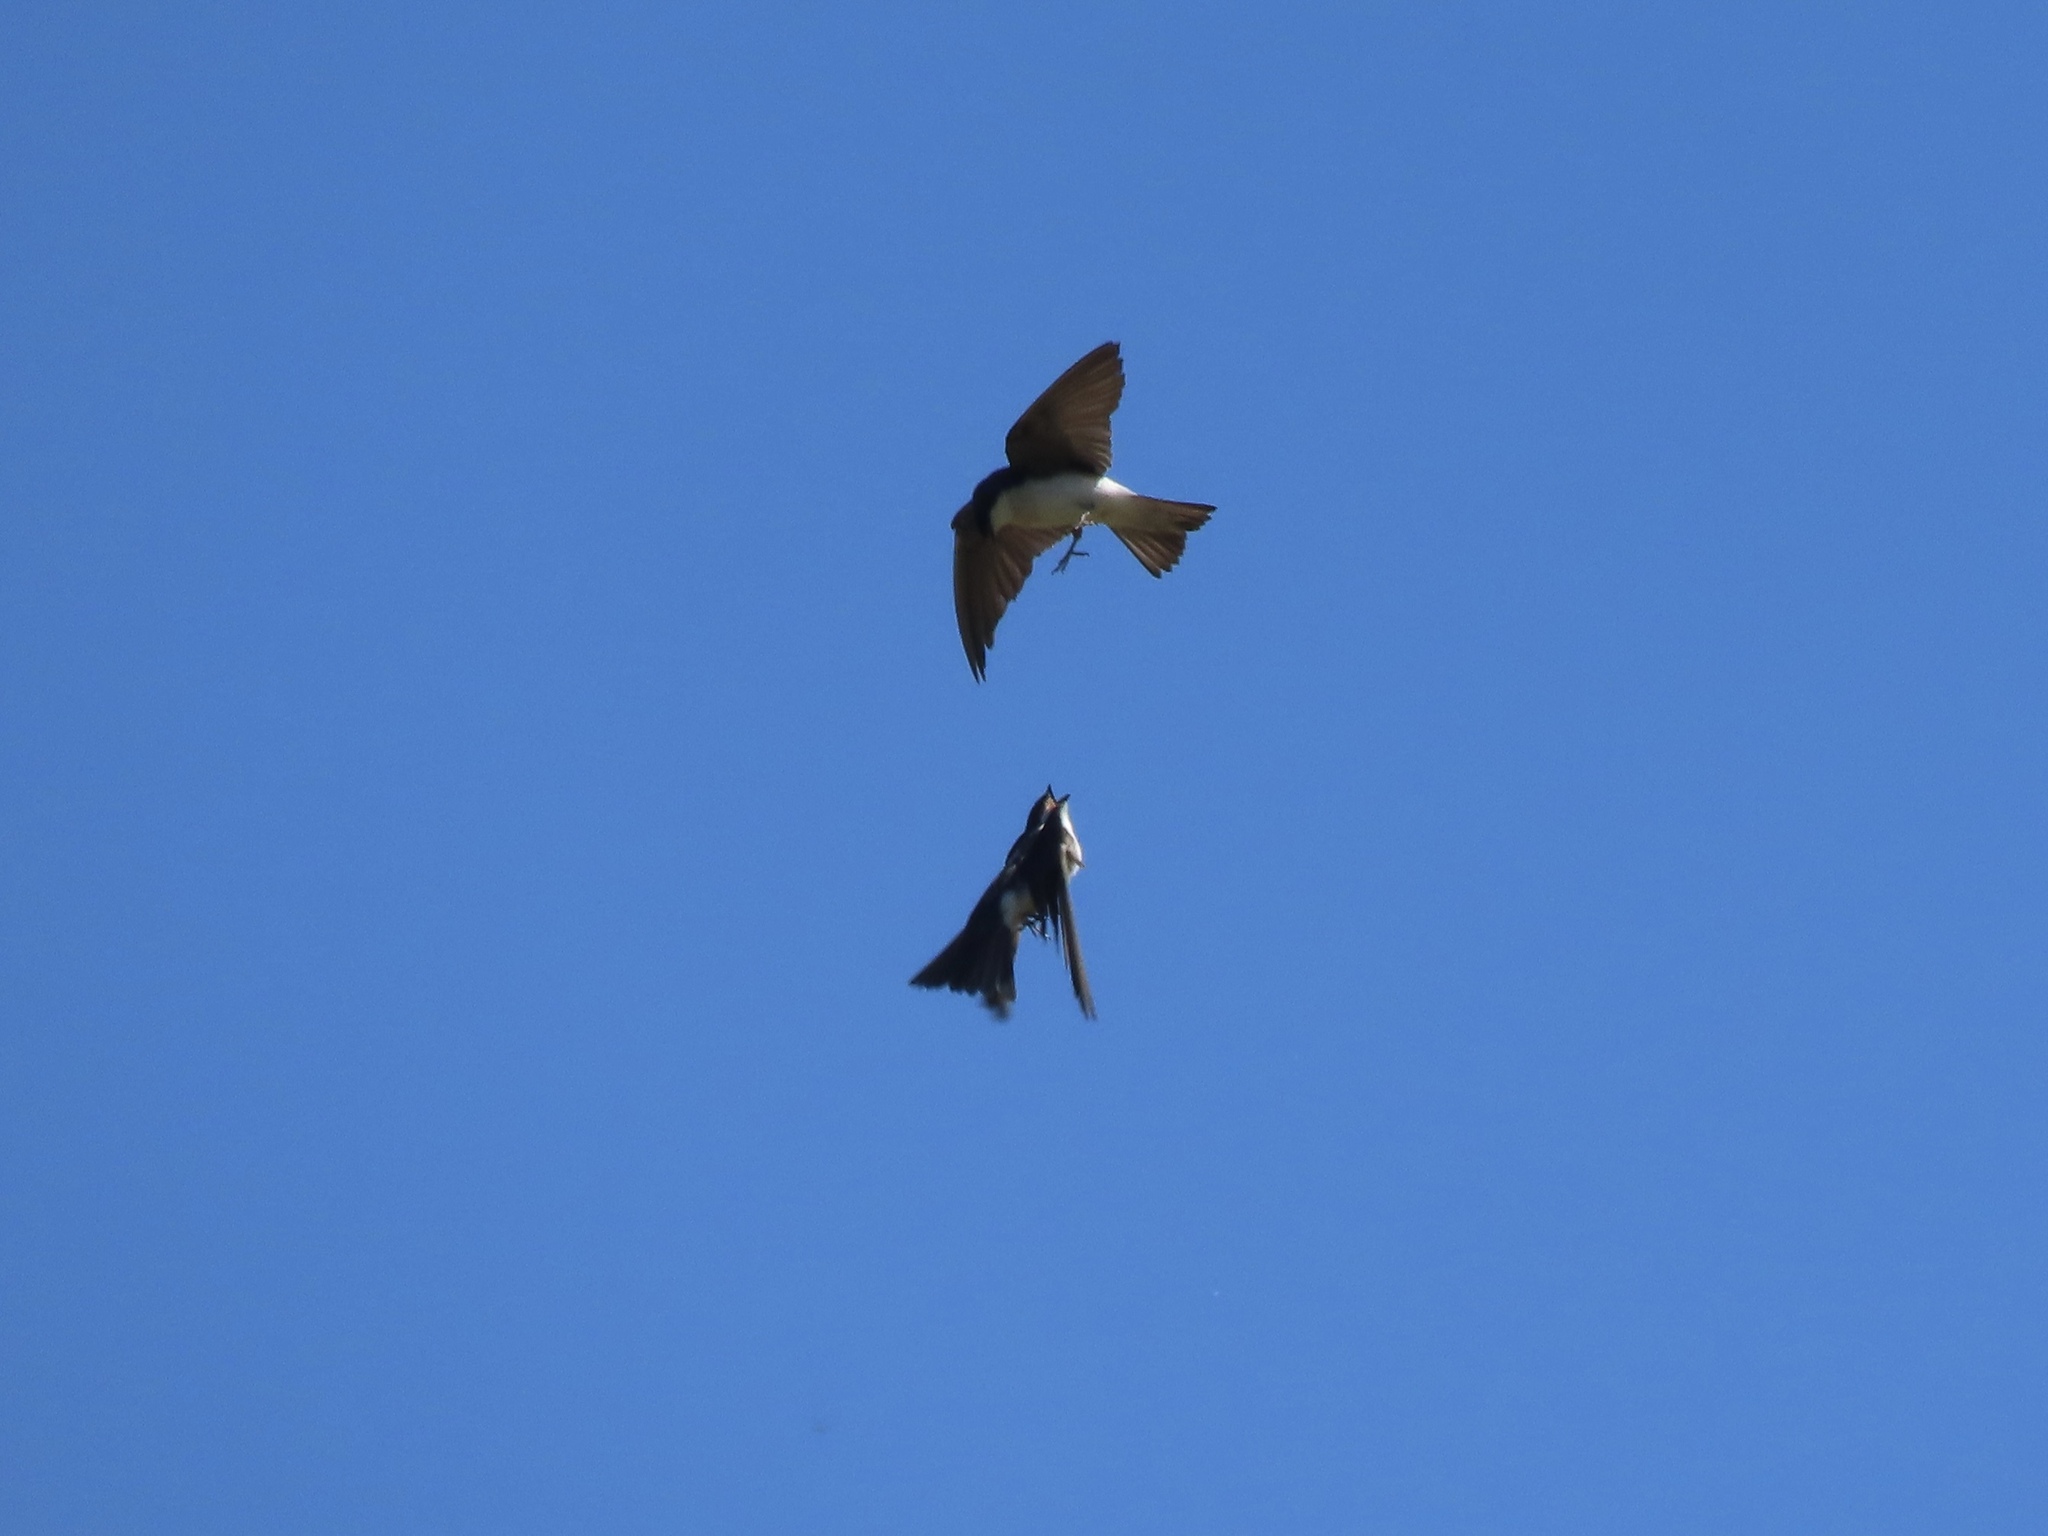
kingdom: Animalia
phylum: Chordata
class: Aves
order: Passeriformes
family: Hirundinidae
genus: Tachycineta
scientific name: Tachycineta bicolor
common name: Tree swallow
